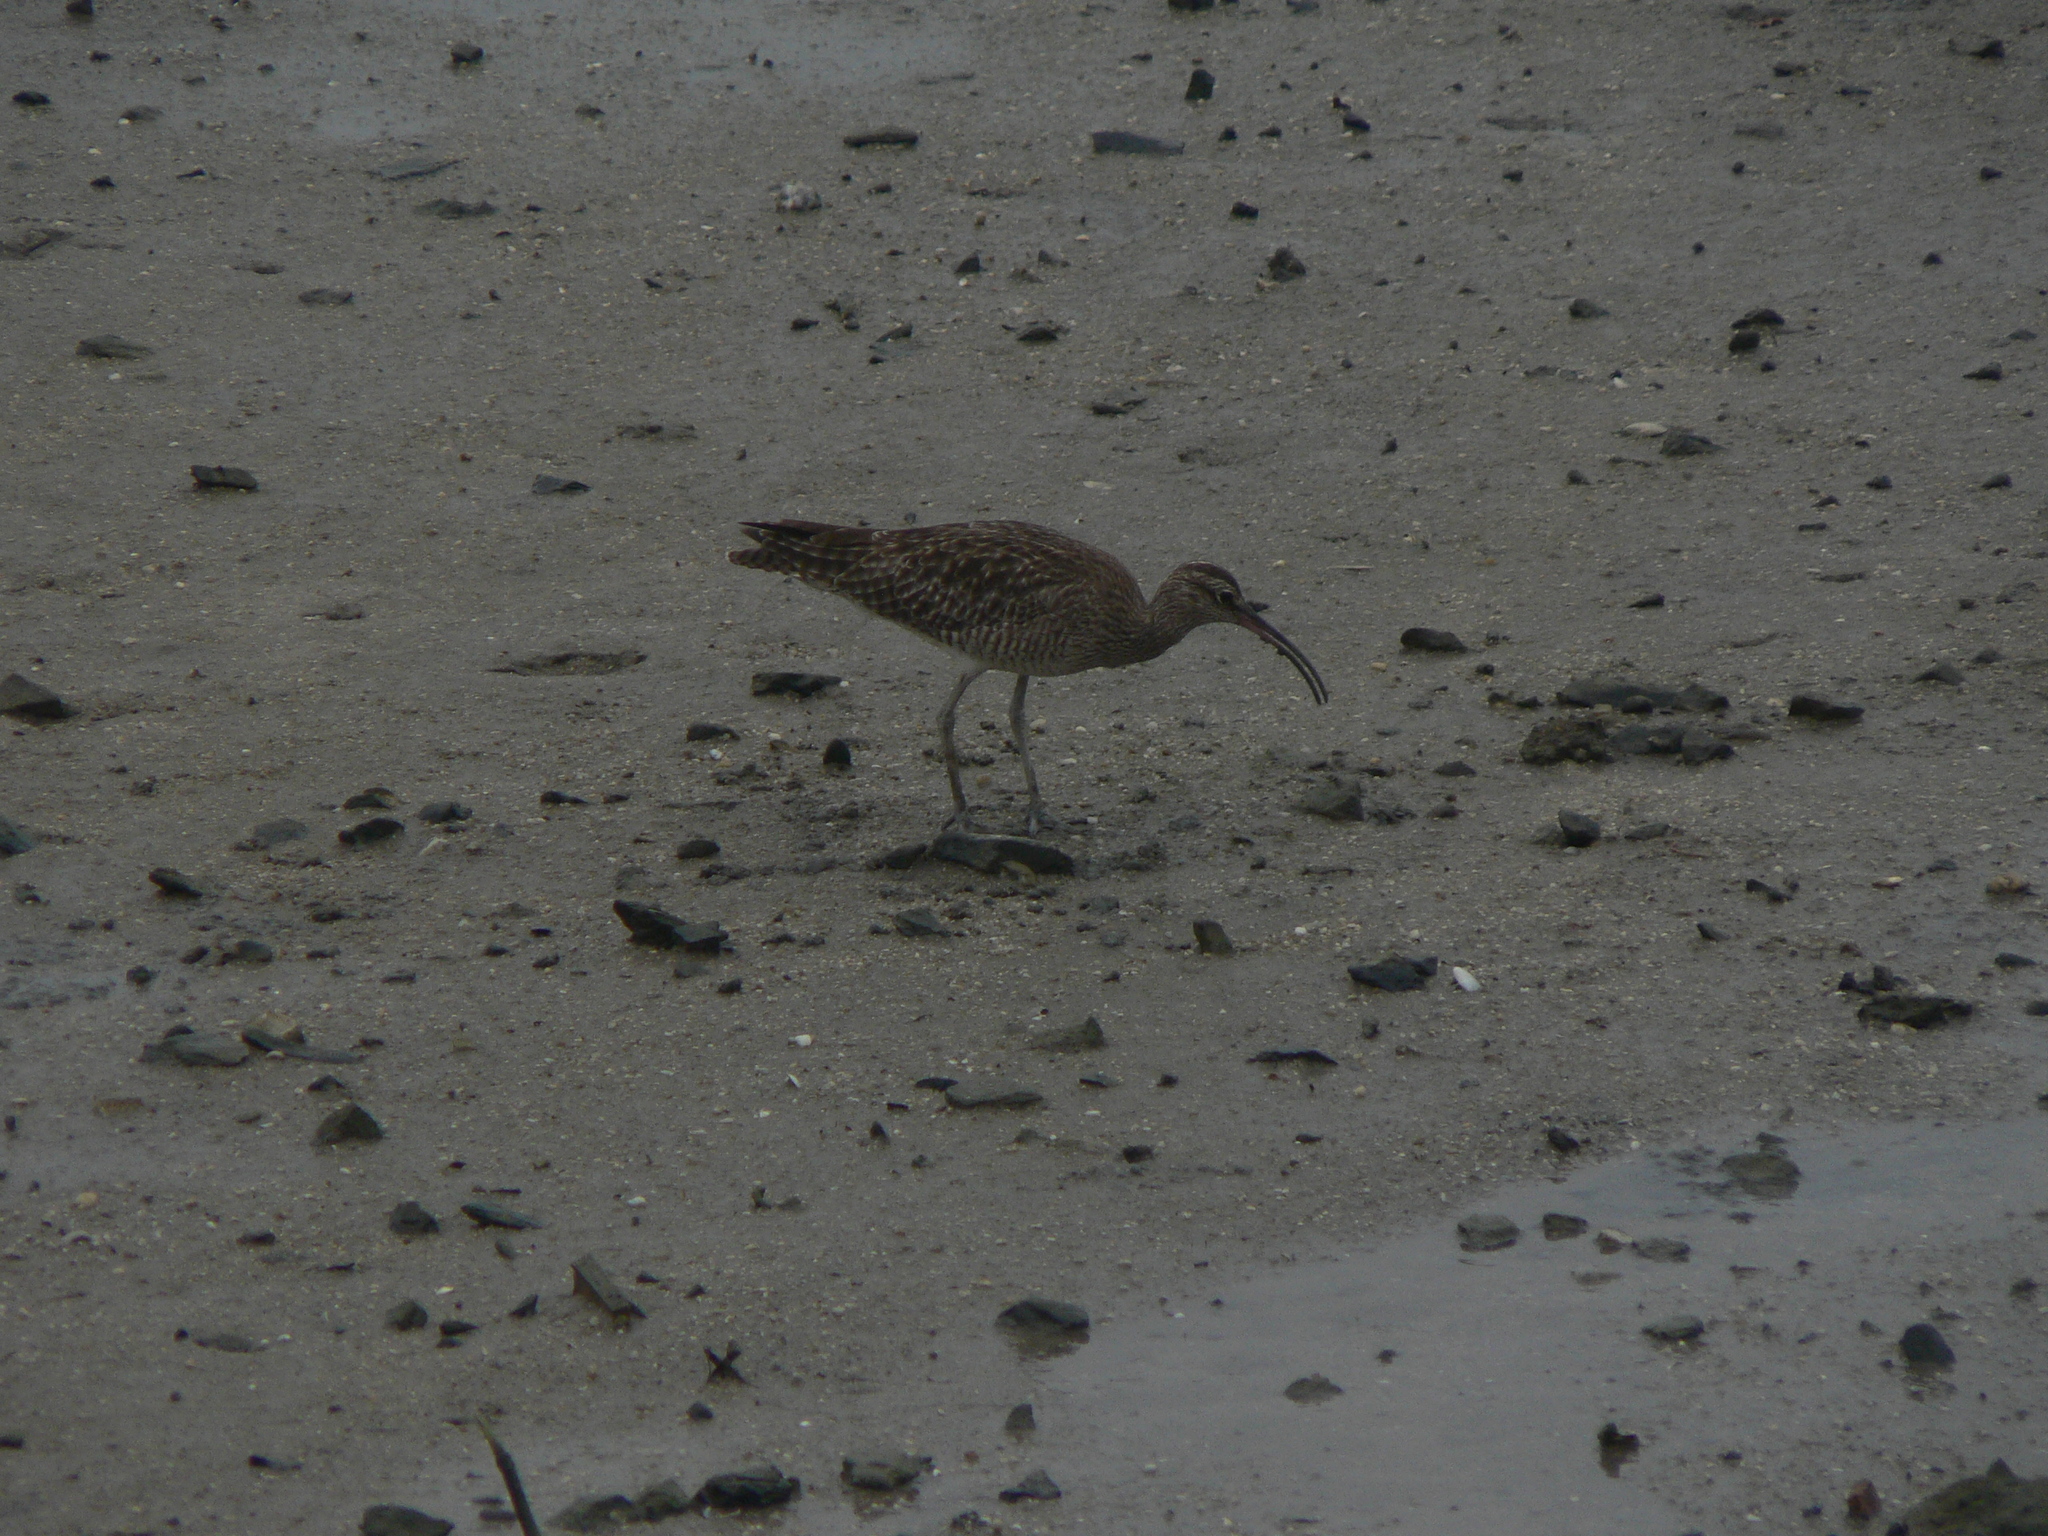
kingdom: Animalia
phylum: Chordata
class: Aves
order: Charadriiformes
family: Scolopacidae
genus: Numenius
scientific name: Numenius phaeopus
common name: Whimbrel
